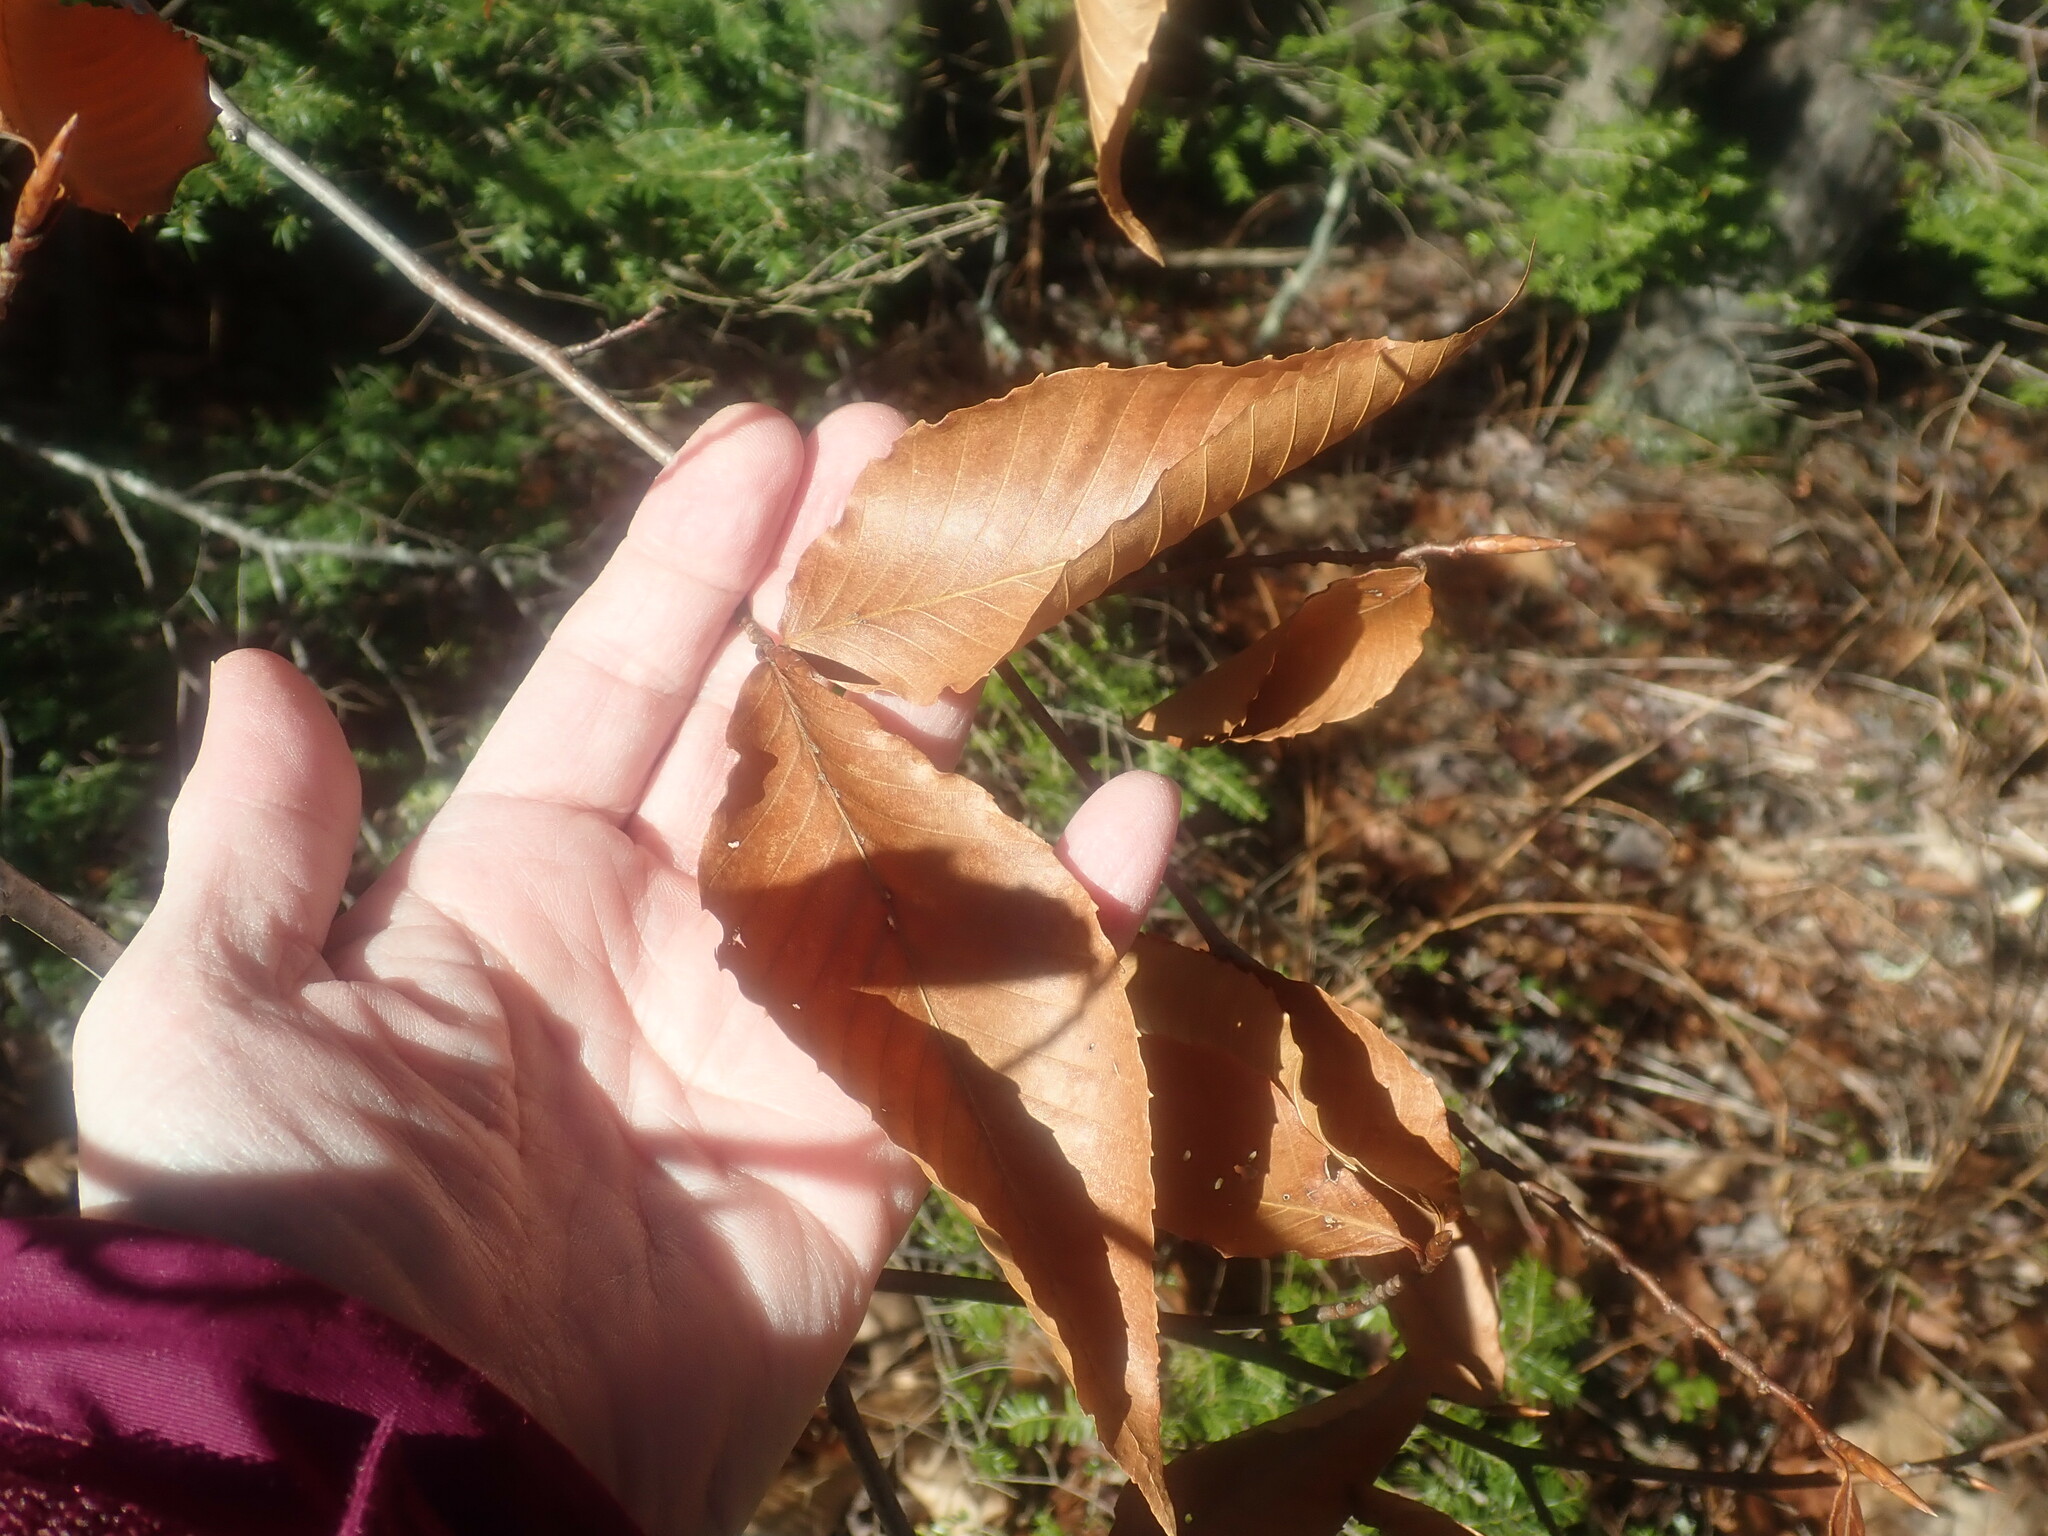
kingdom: Plantae
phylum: Tracheophyta
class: Magnoliopsida
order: Fagales
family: Fagaceae
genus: Fagus
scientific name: Fagus grandifolia
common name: American beech
